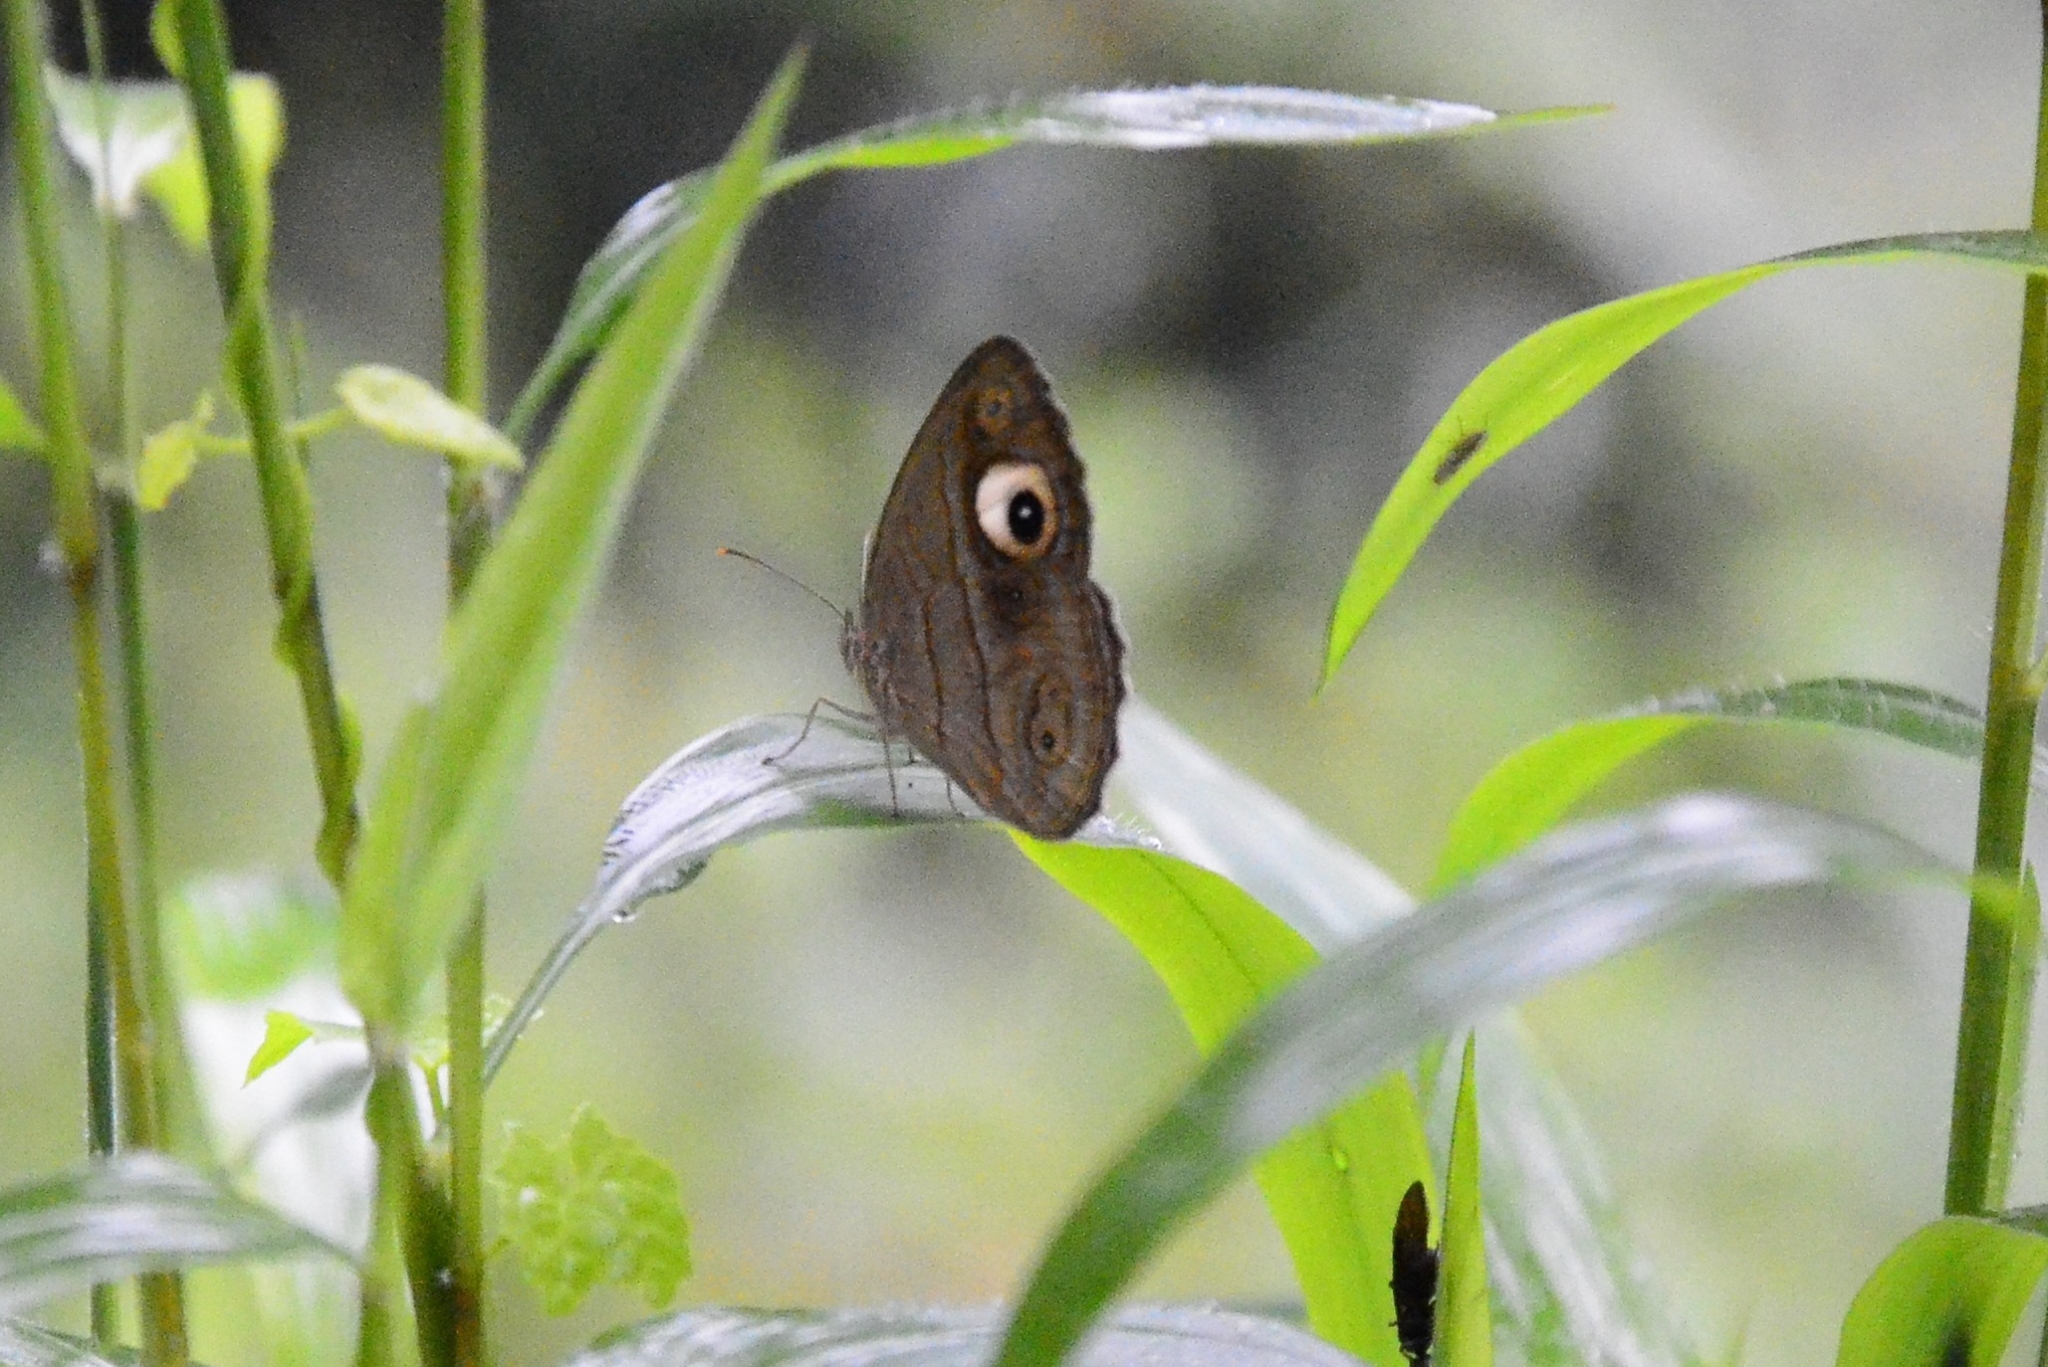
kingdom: Animalia
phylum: Arthropoda
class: Insecta
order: Lepidoptera
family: Nymphalidae
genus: Mycalesis
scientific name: Mycalesis patnia
